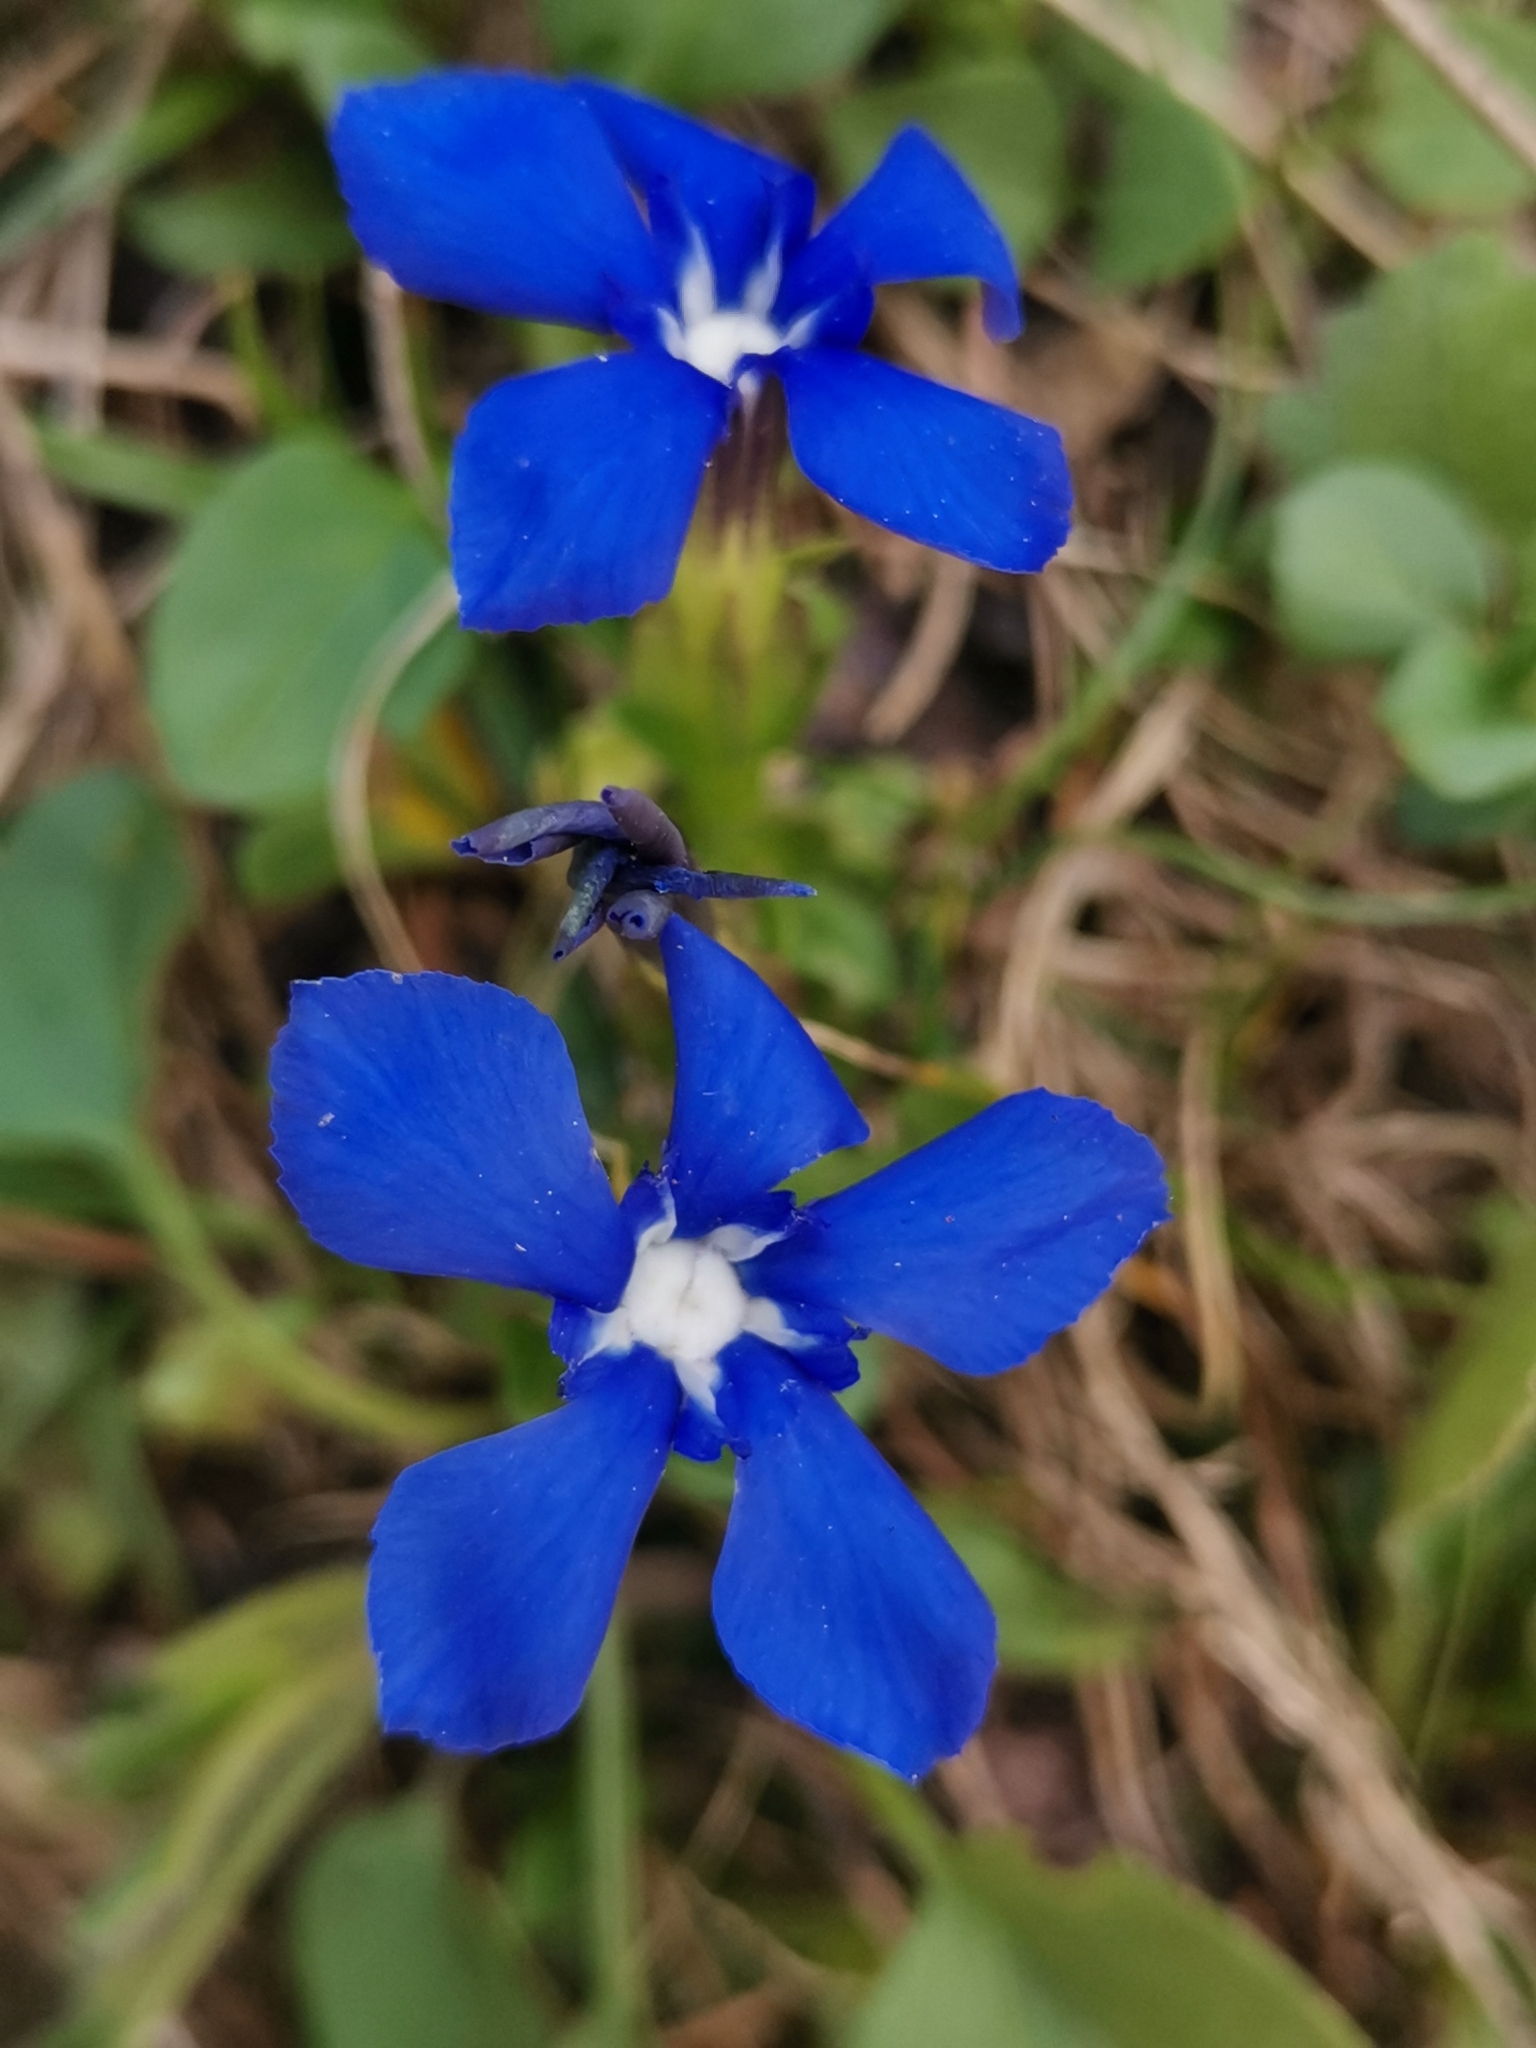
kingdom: Plantae
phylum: Tracheophyta
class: Magnoliopsida
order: Gentianales
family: Gentianaceae
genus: Gentiana
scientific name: Gentiana verna
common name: Spring gentian
